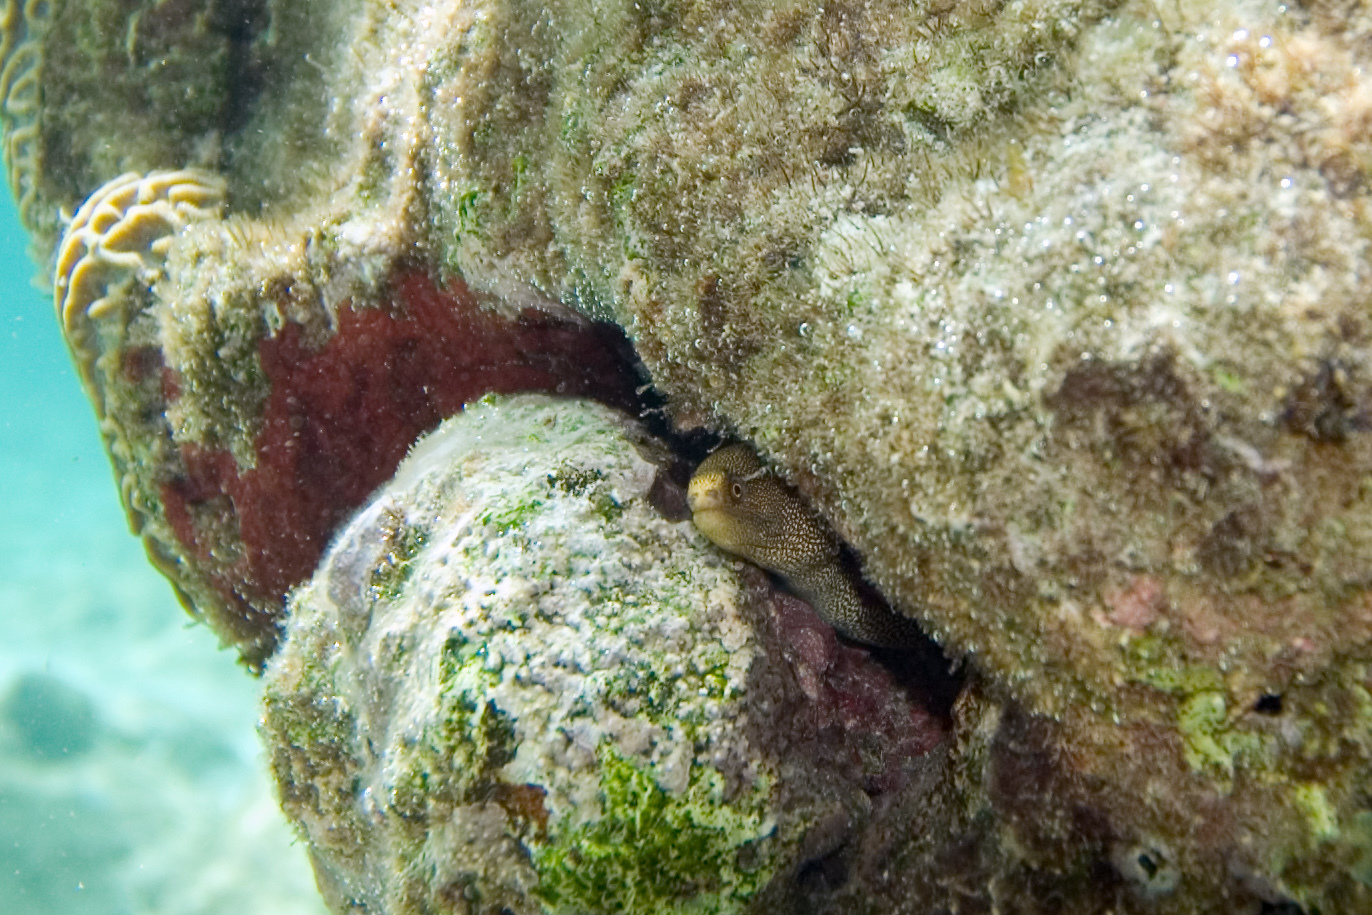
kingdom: Animalia
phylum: Chordata
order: Anguilliformes
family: Muraenidae
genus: Gymnothorax
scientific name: Gymnothorax miliaris
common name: Goldentail moray
